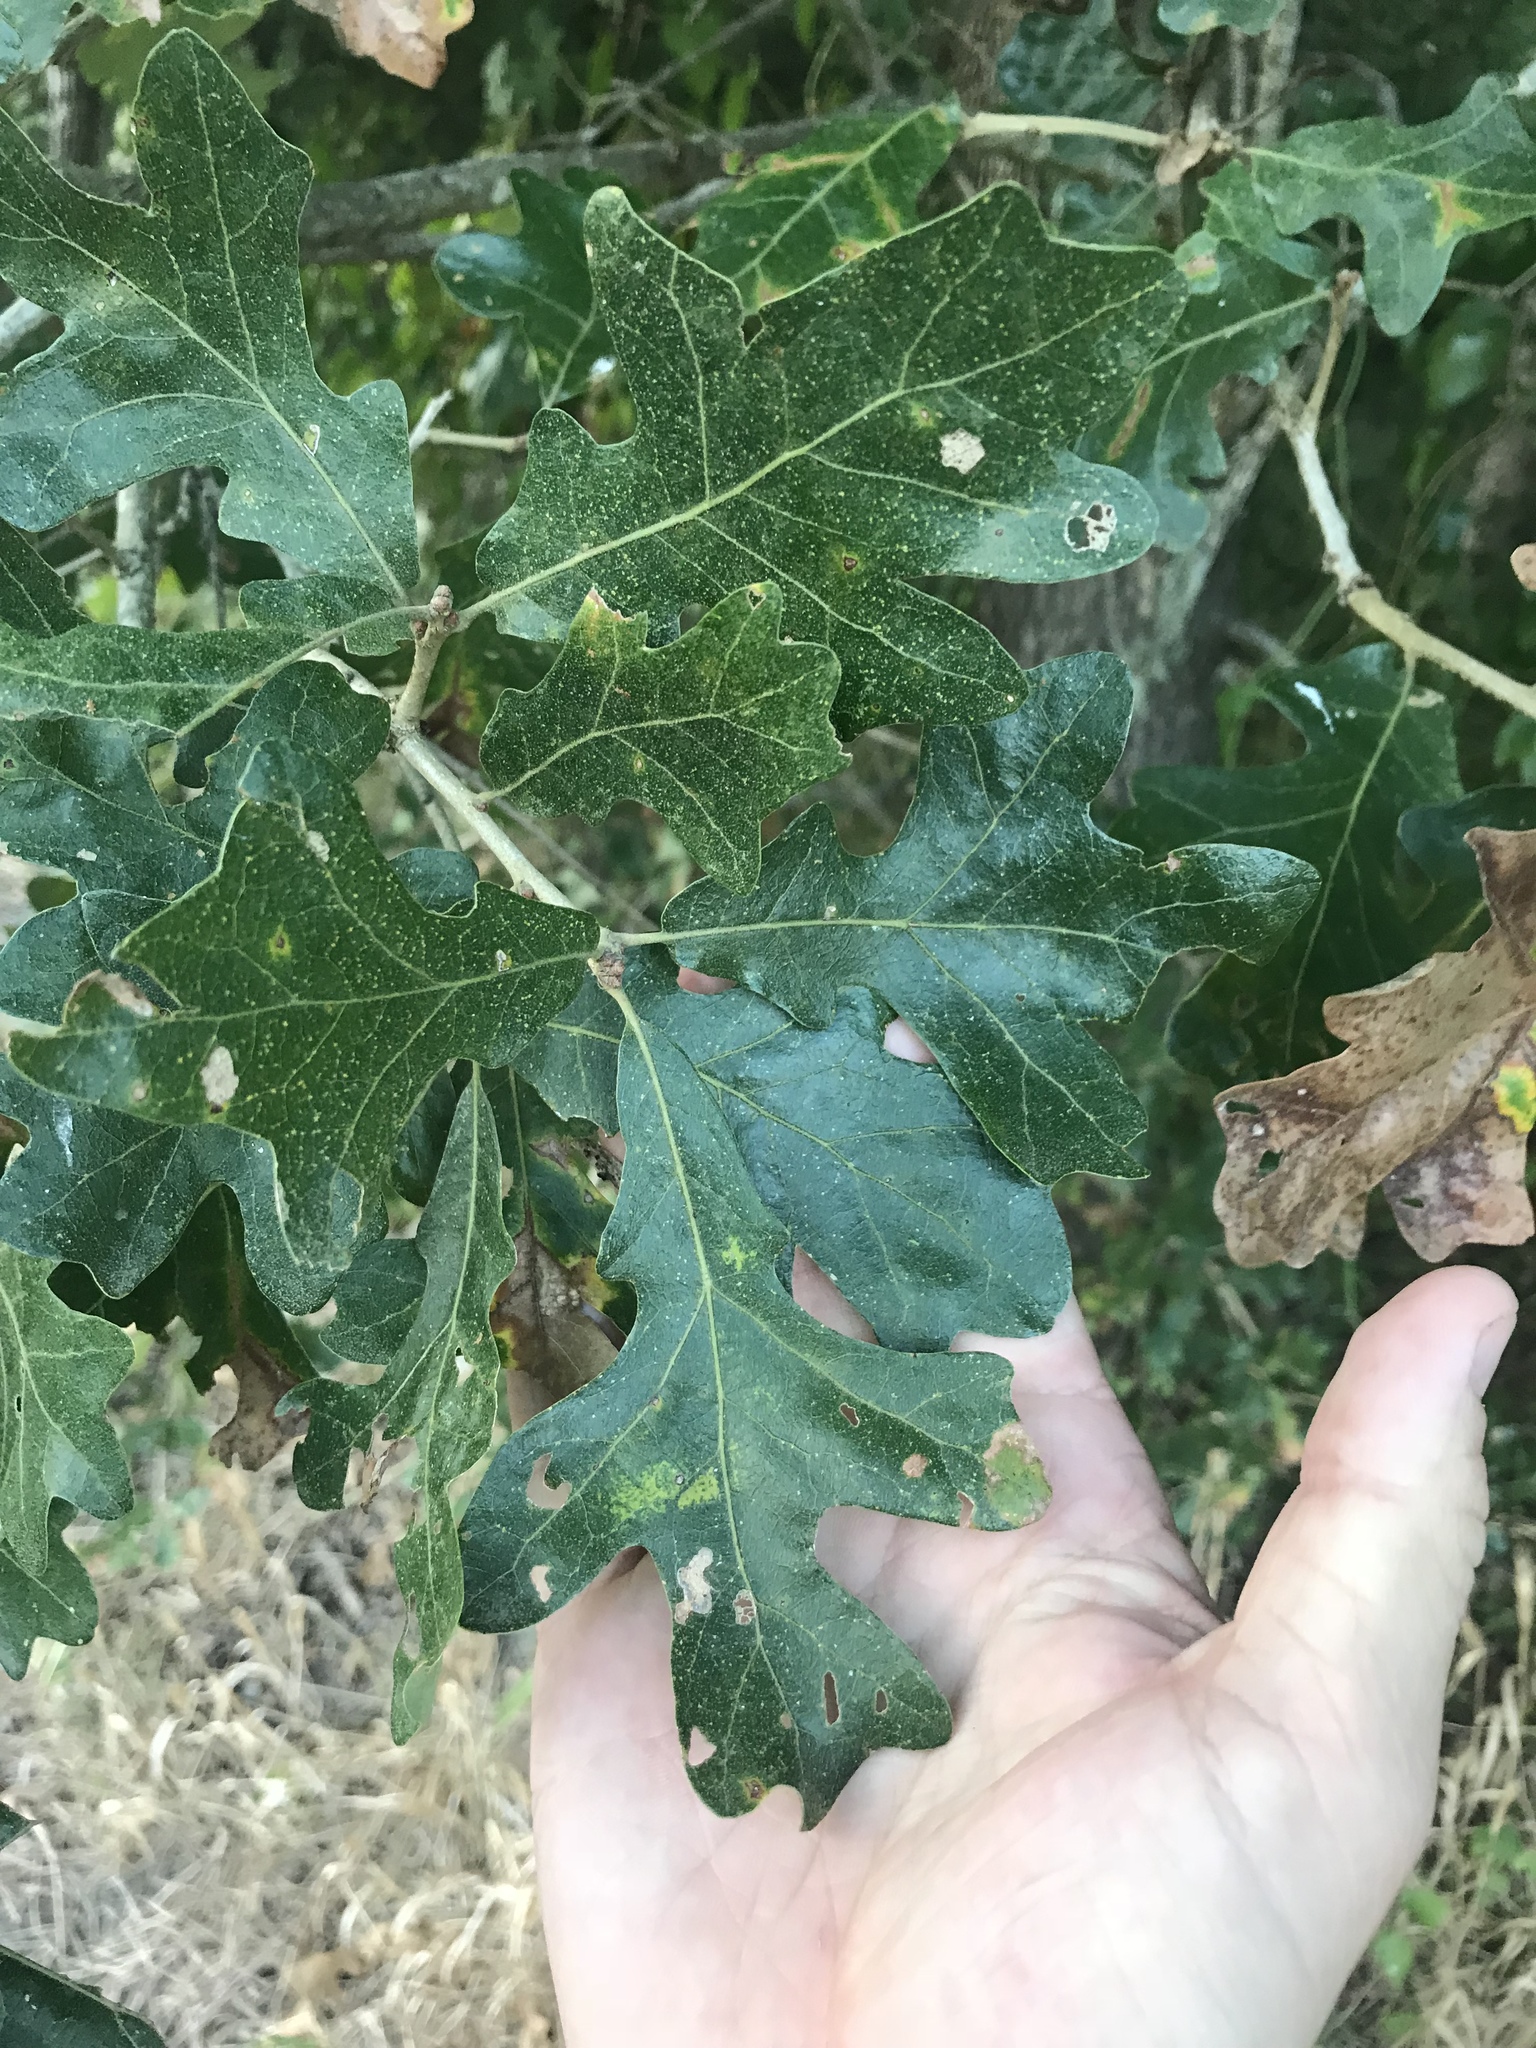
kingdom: Plantae
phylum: Tracheophyta
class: Magnoliopsida
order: Fagales
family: Fagaceae
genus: Quercus
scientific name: Quercus stellata
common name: Post oak
